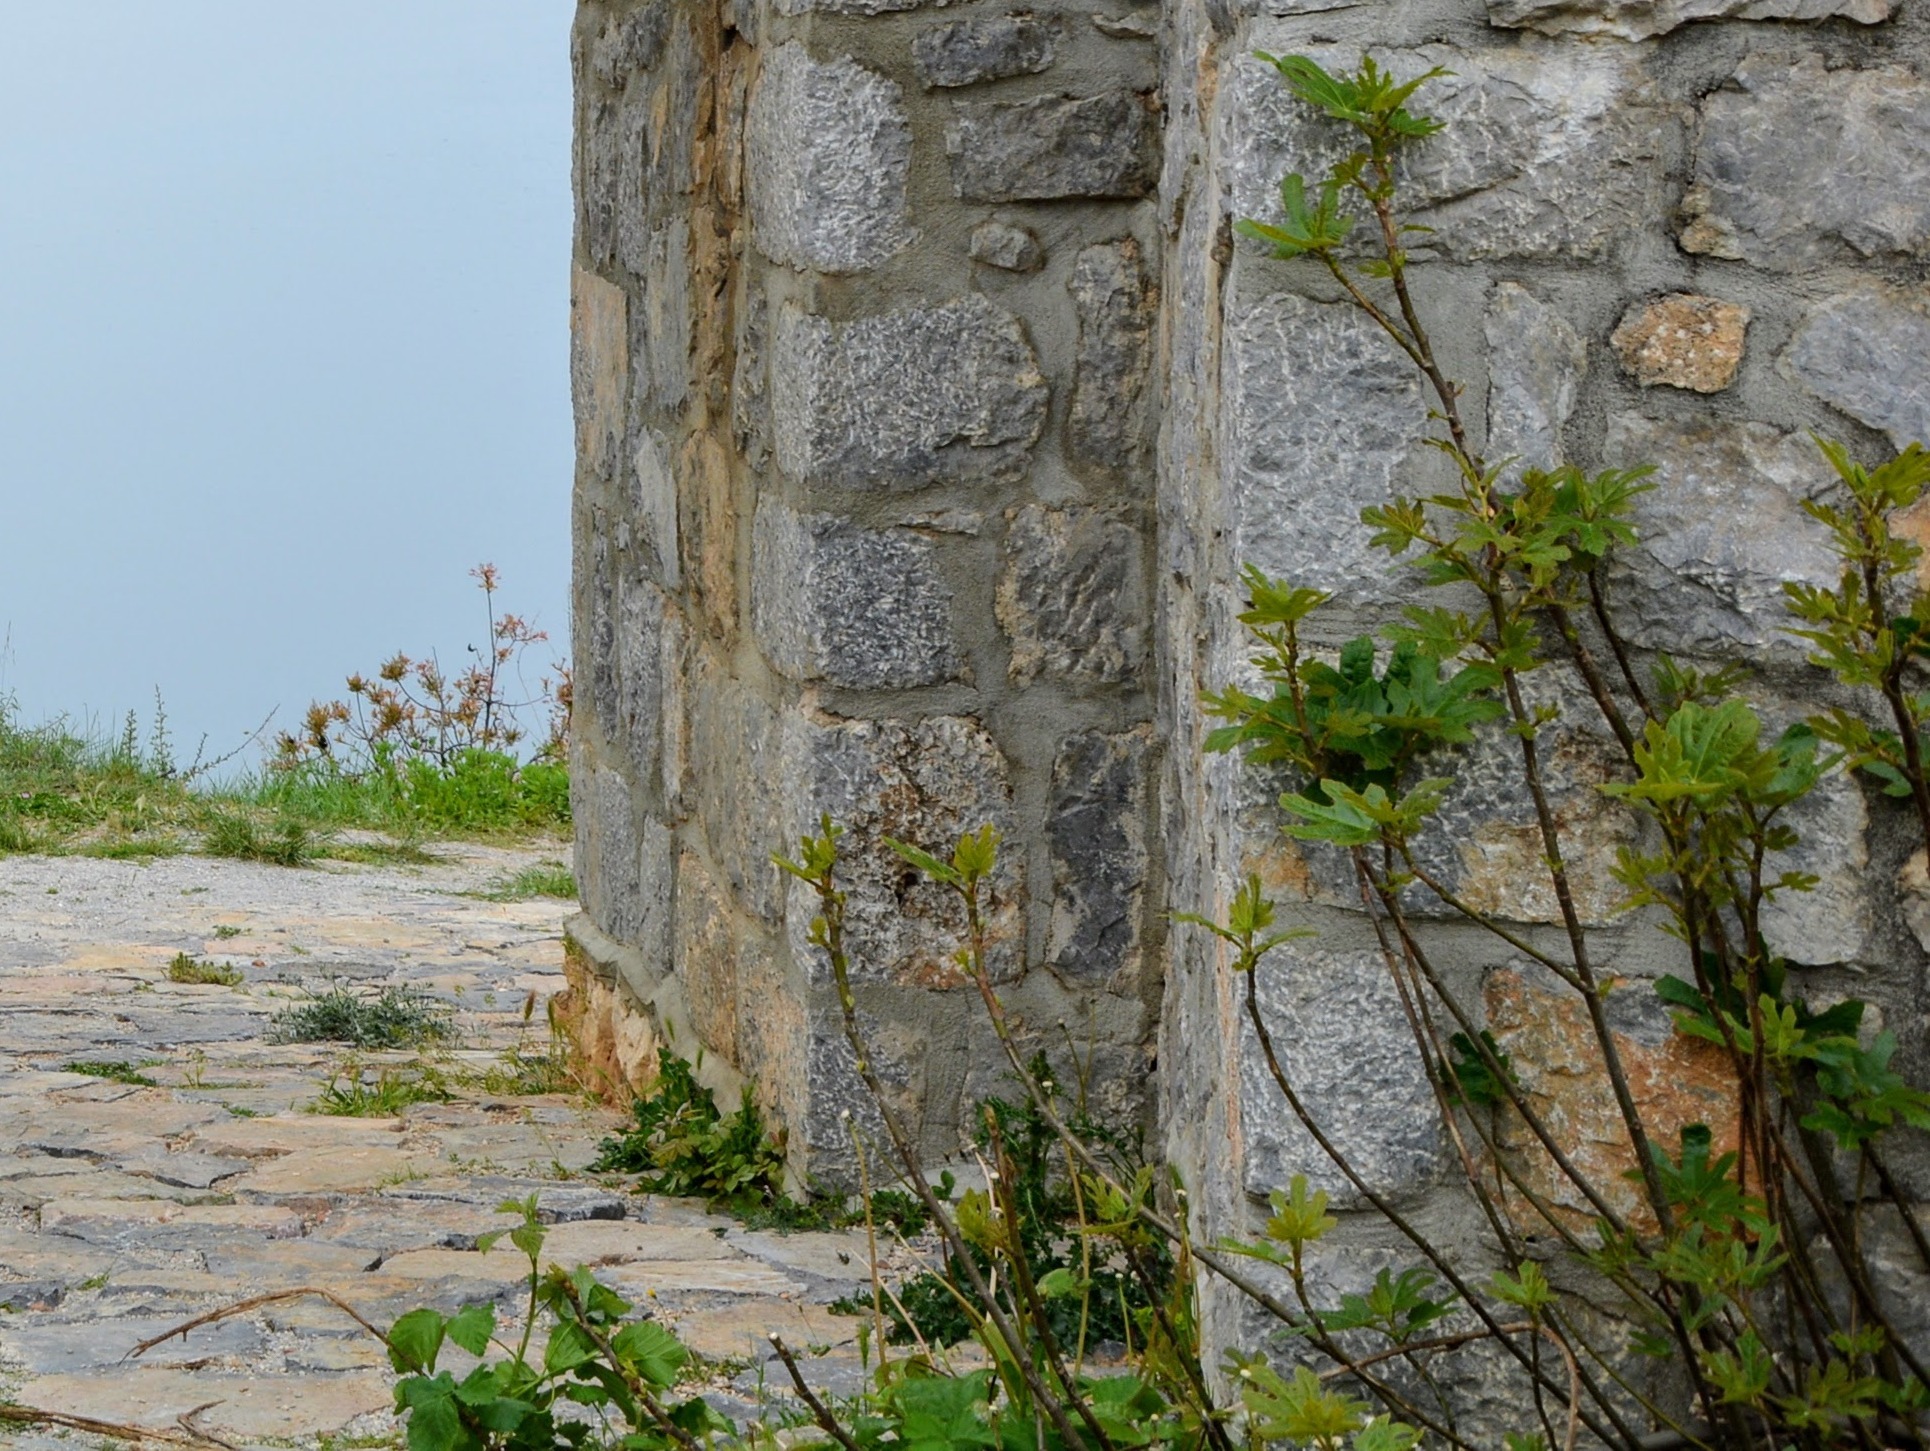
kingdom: Plantae
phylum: Tracheophyta
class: Magnoliopsida
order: Rosales
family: Moraceae
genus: Ficus
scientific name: Ficus carica
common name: Fig
